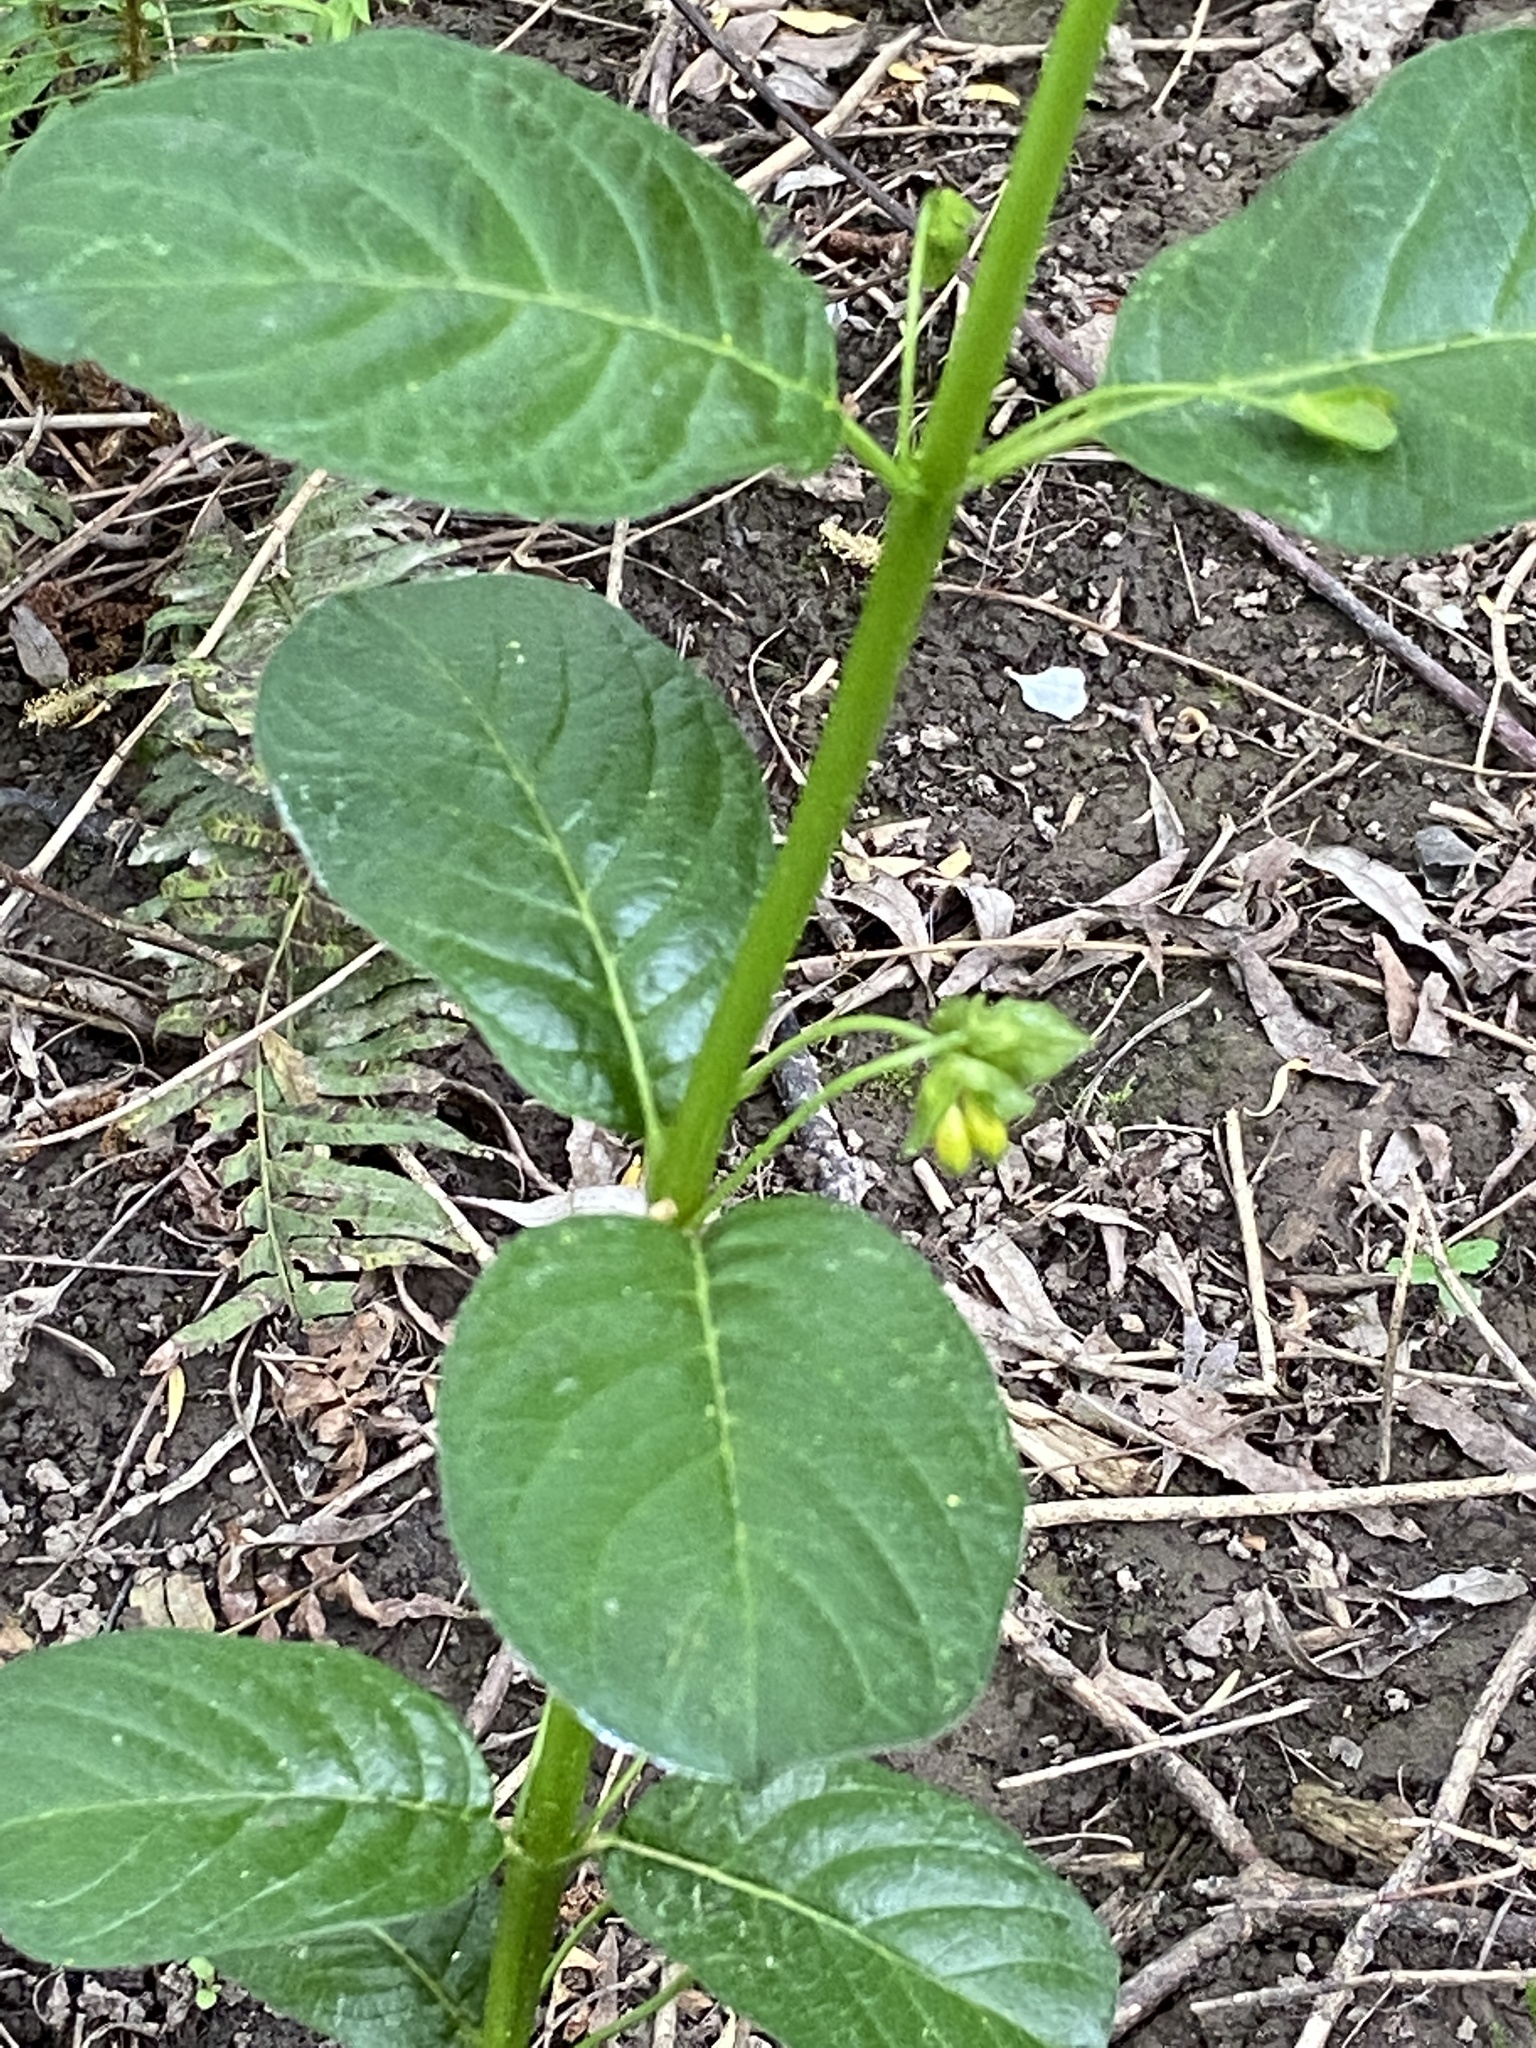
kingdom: Plantae
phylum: Tracheophyta
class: Magnoliopsida
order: Dipsacales
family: Caprifoliaceae
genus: Lonicera
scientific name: Lonicera involucrata
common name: Californian honeysuckle
